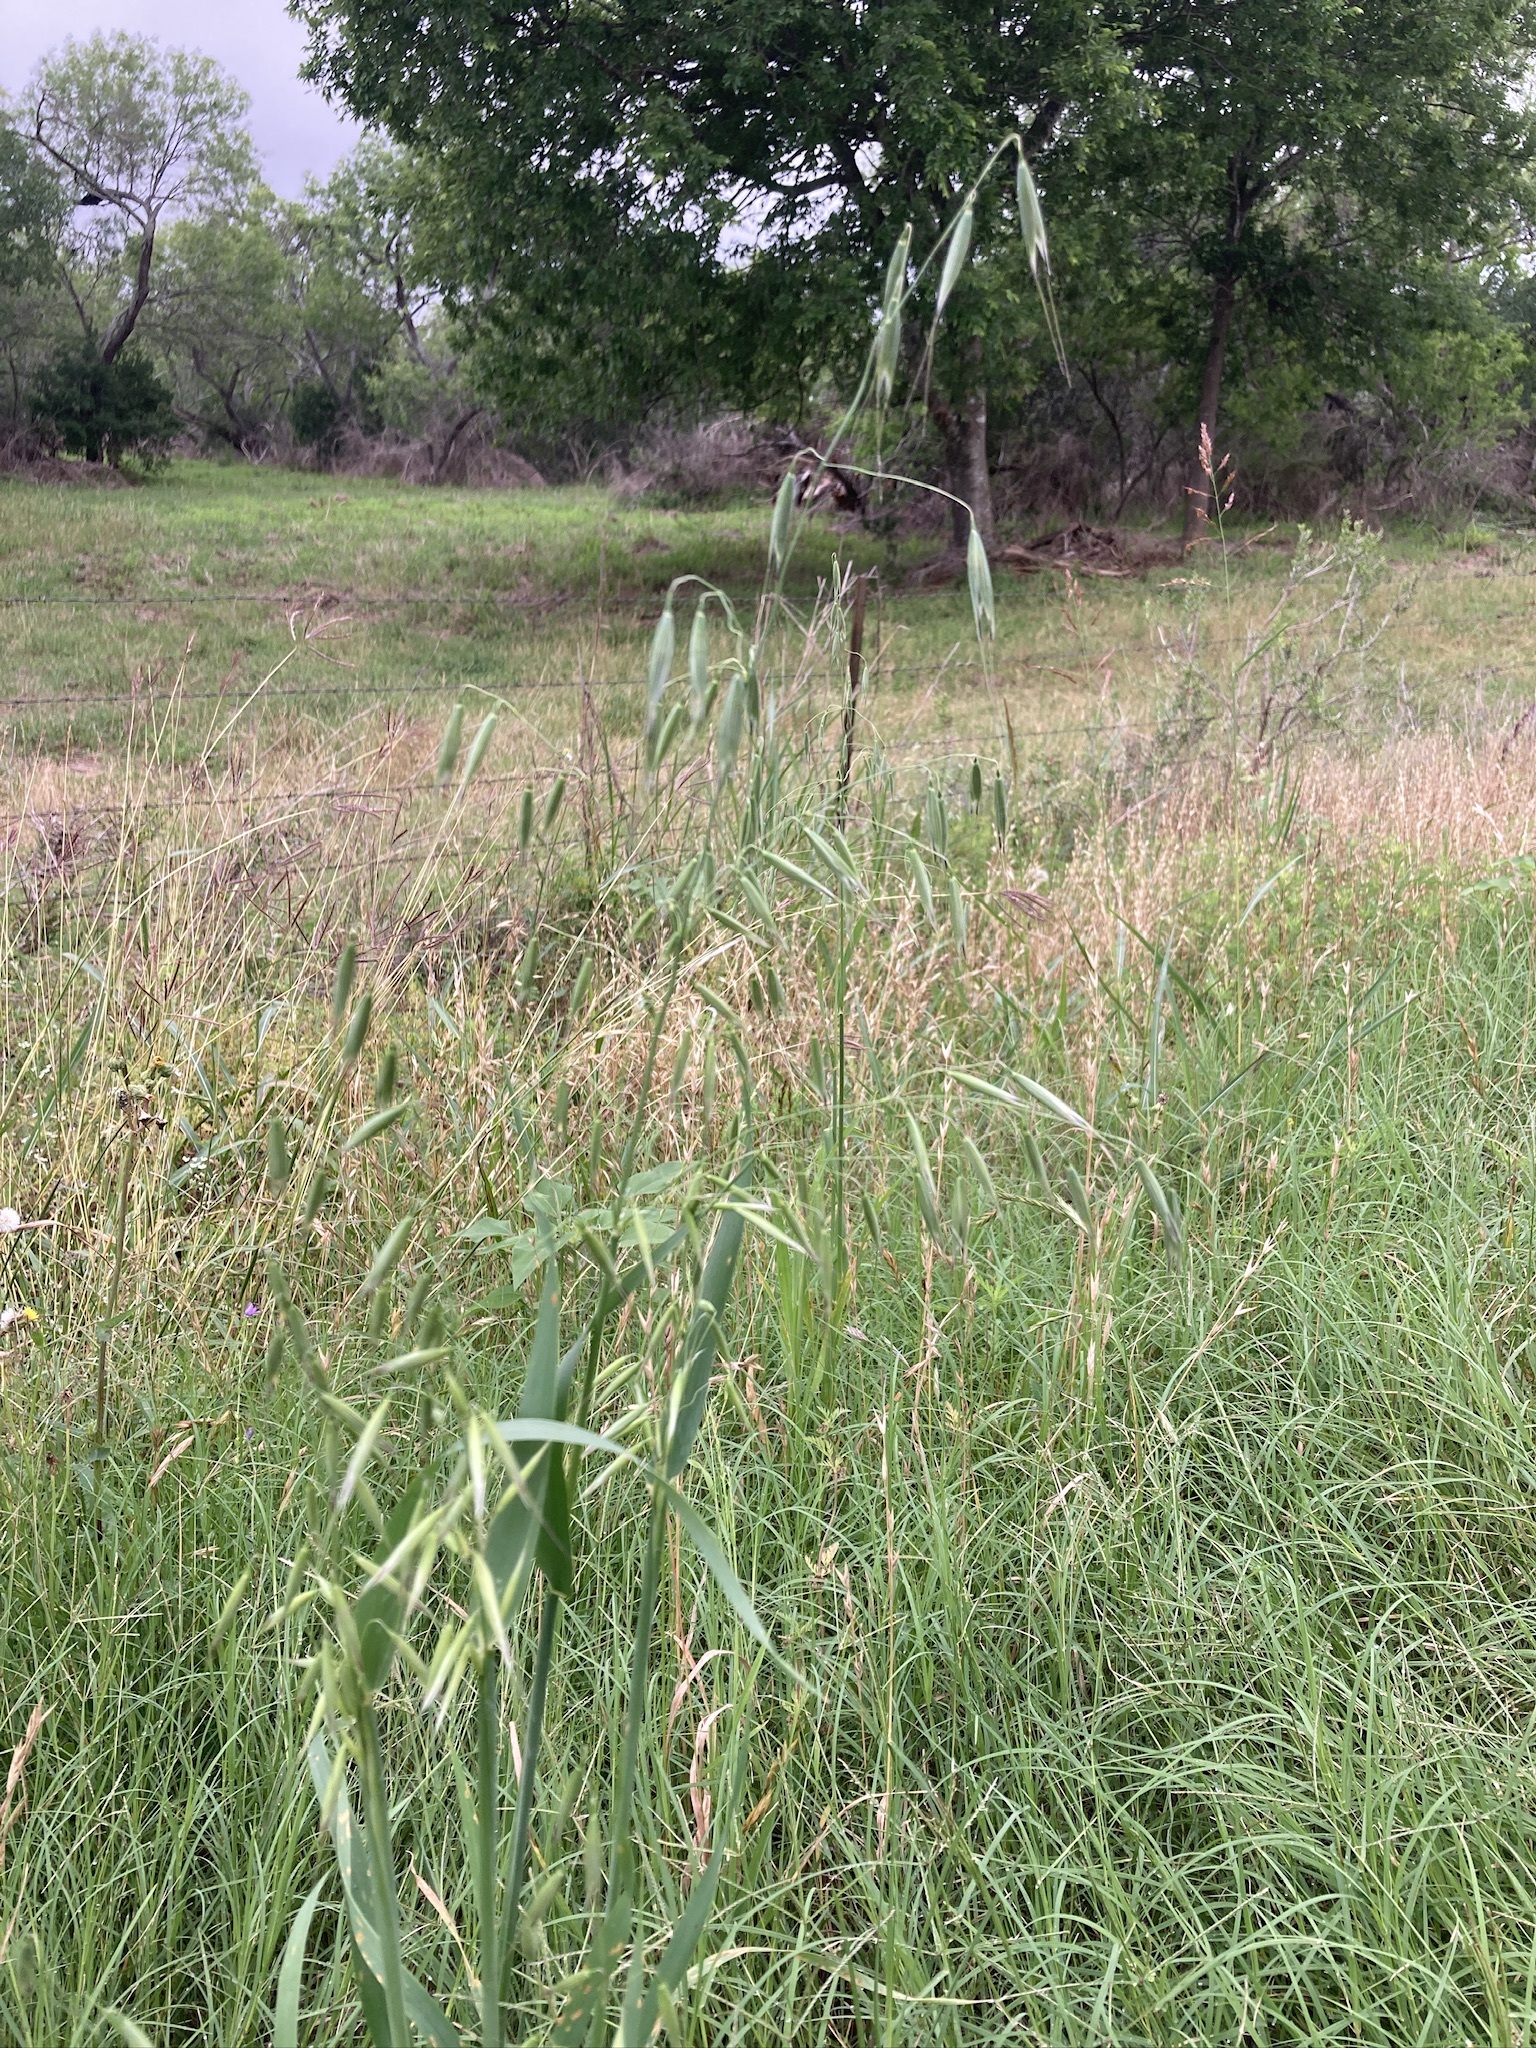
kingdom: Plantae
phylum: Tracheophyta
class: Liliopsida
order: Poales
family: Poaceae
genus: Avena
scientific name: Avena fatua
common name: Wild oat
